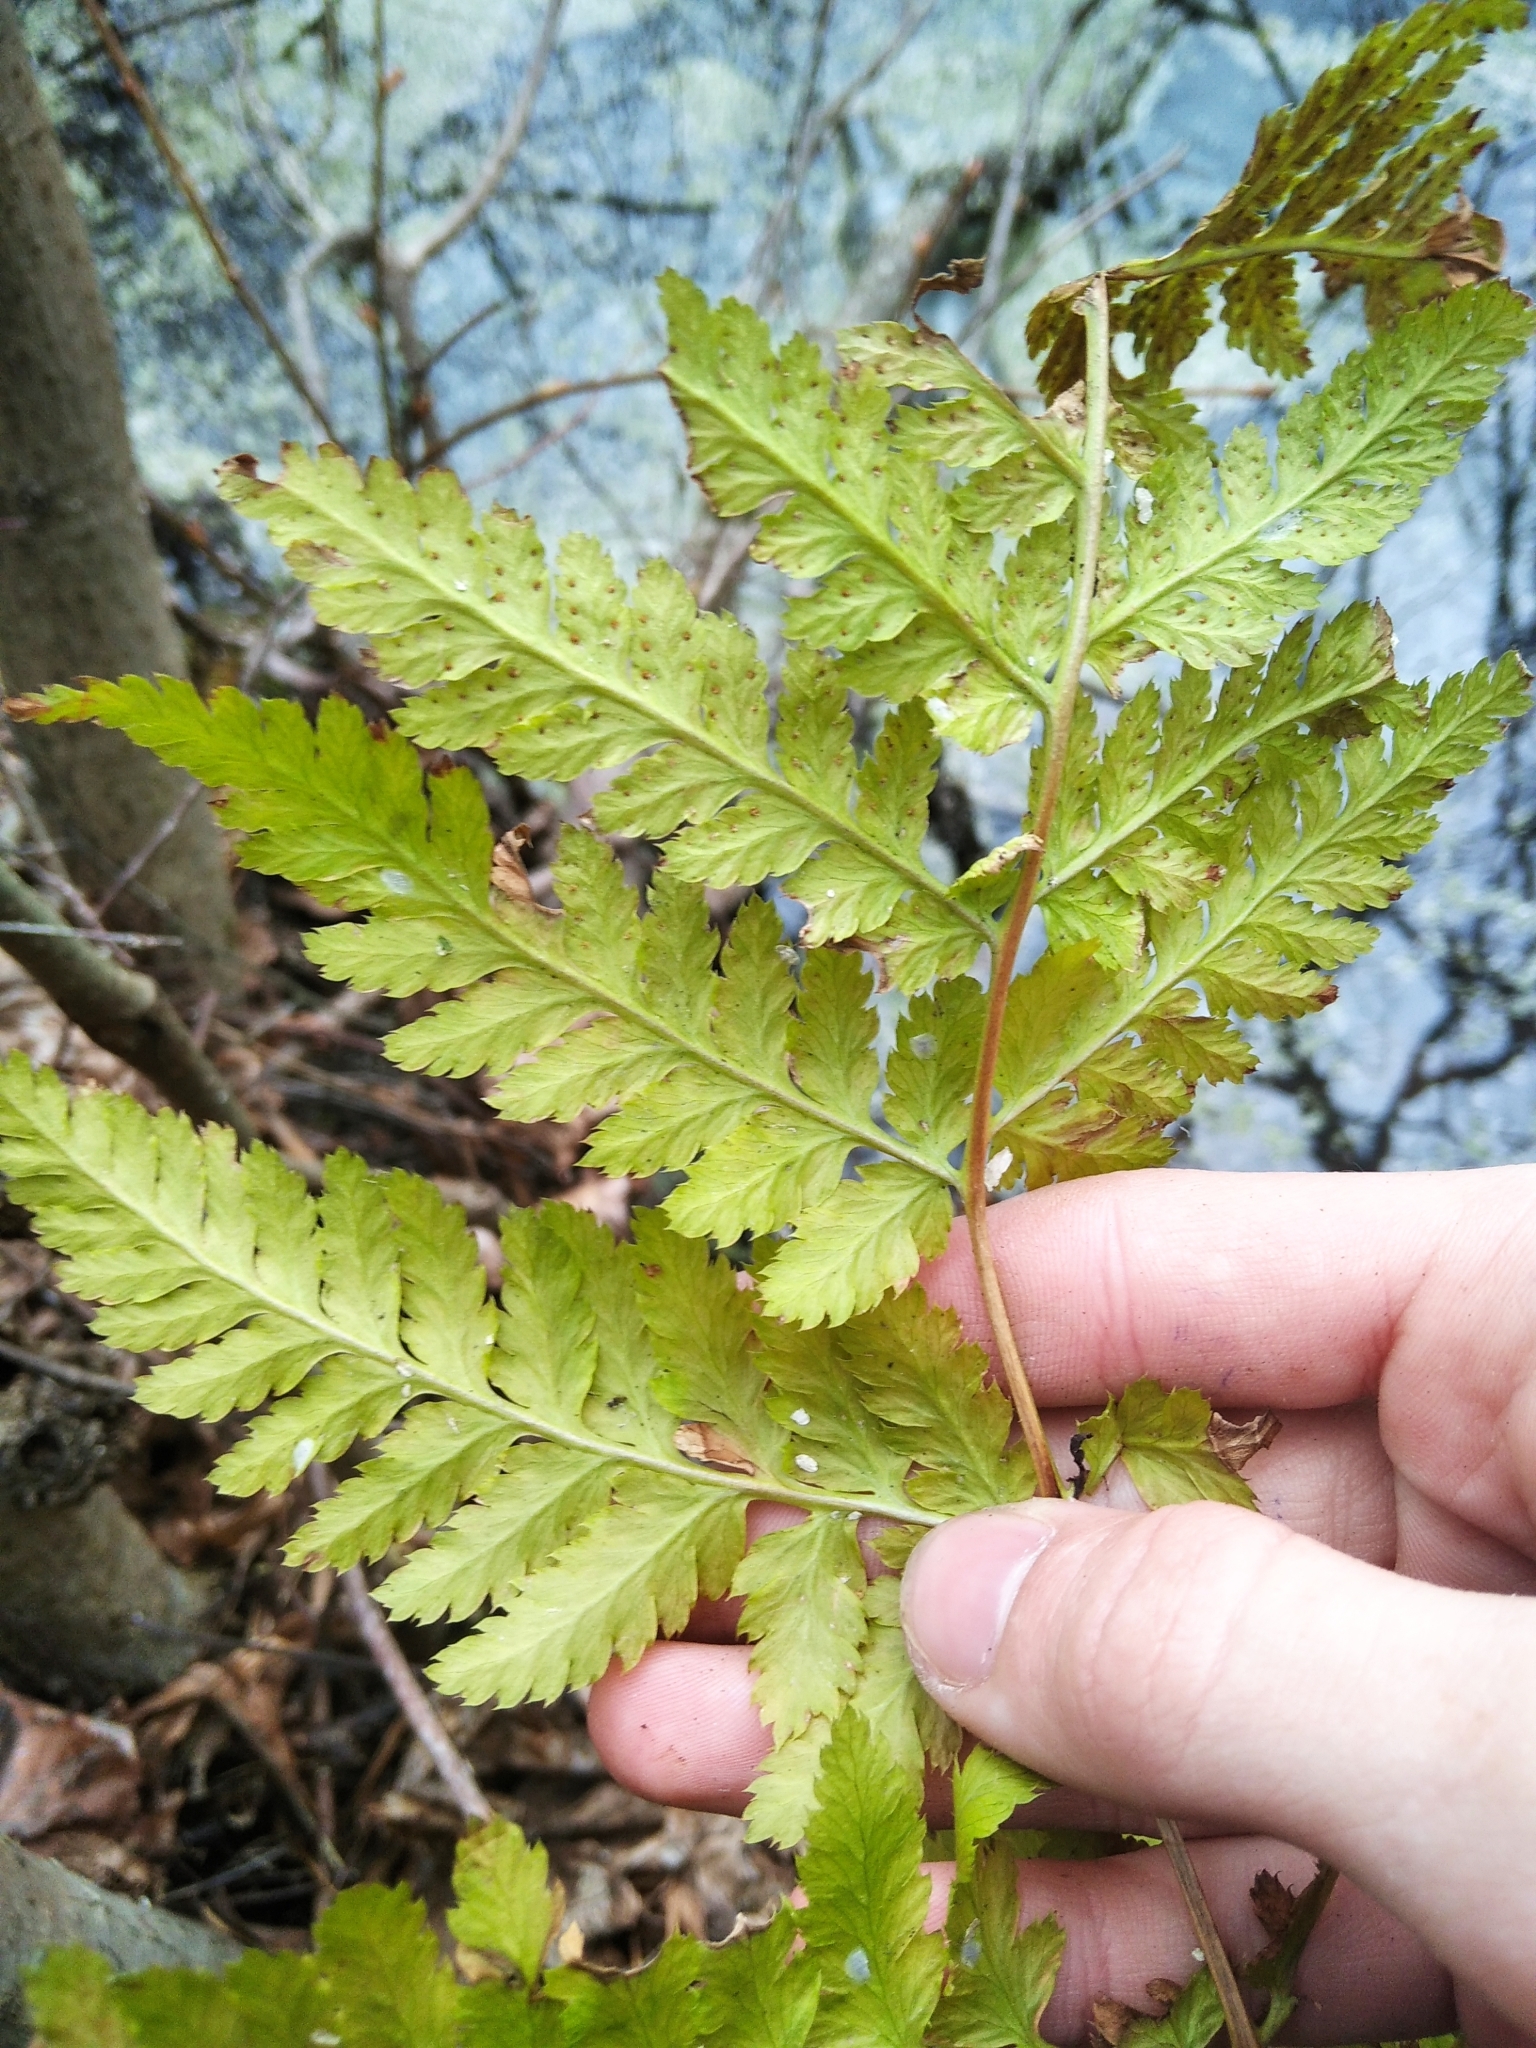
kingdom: Plantae
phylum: Tracheophyta
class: Polypodiopsida
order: Polypodiales
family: Dryopteridaceae
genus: Dryopteris
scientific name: Dryopteris carthusiana
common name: Narrow buckler-fern
